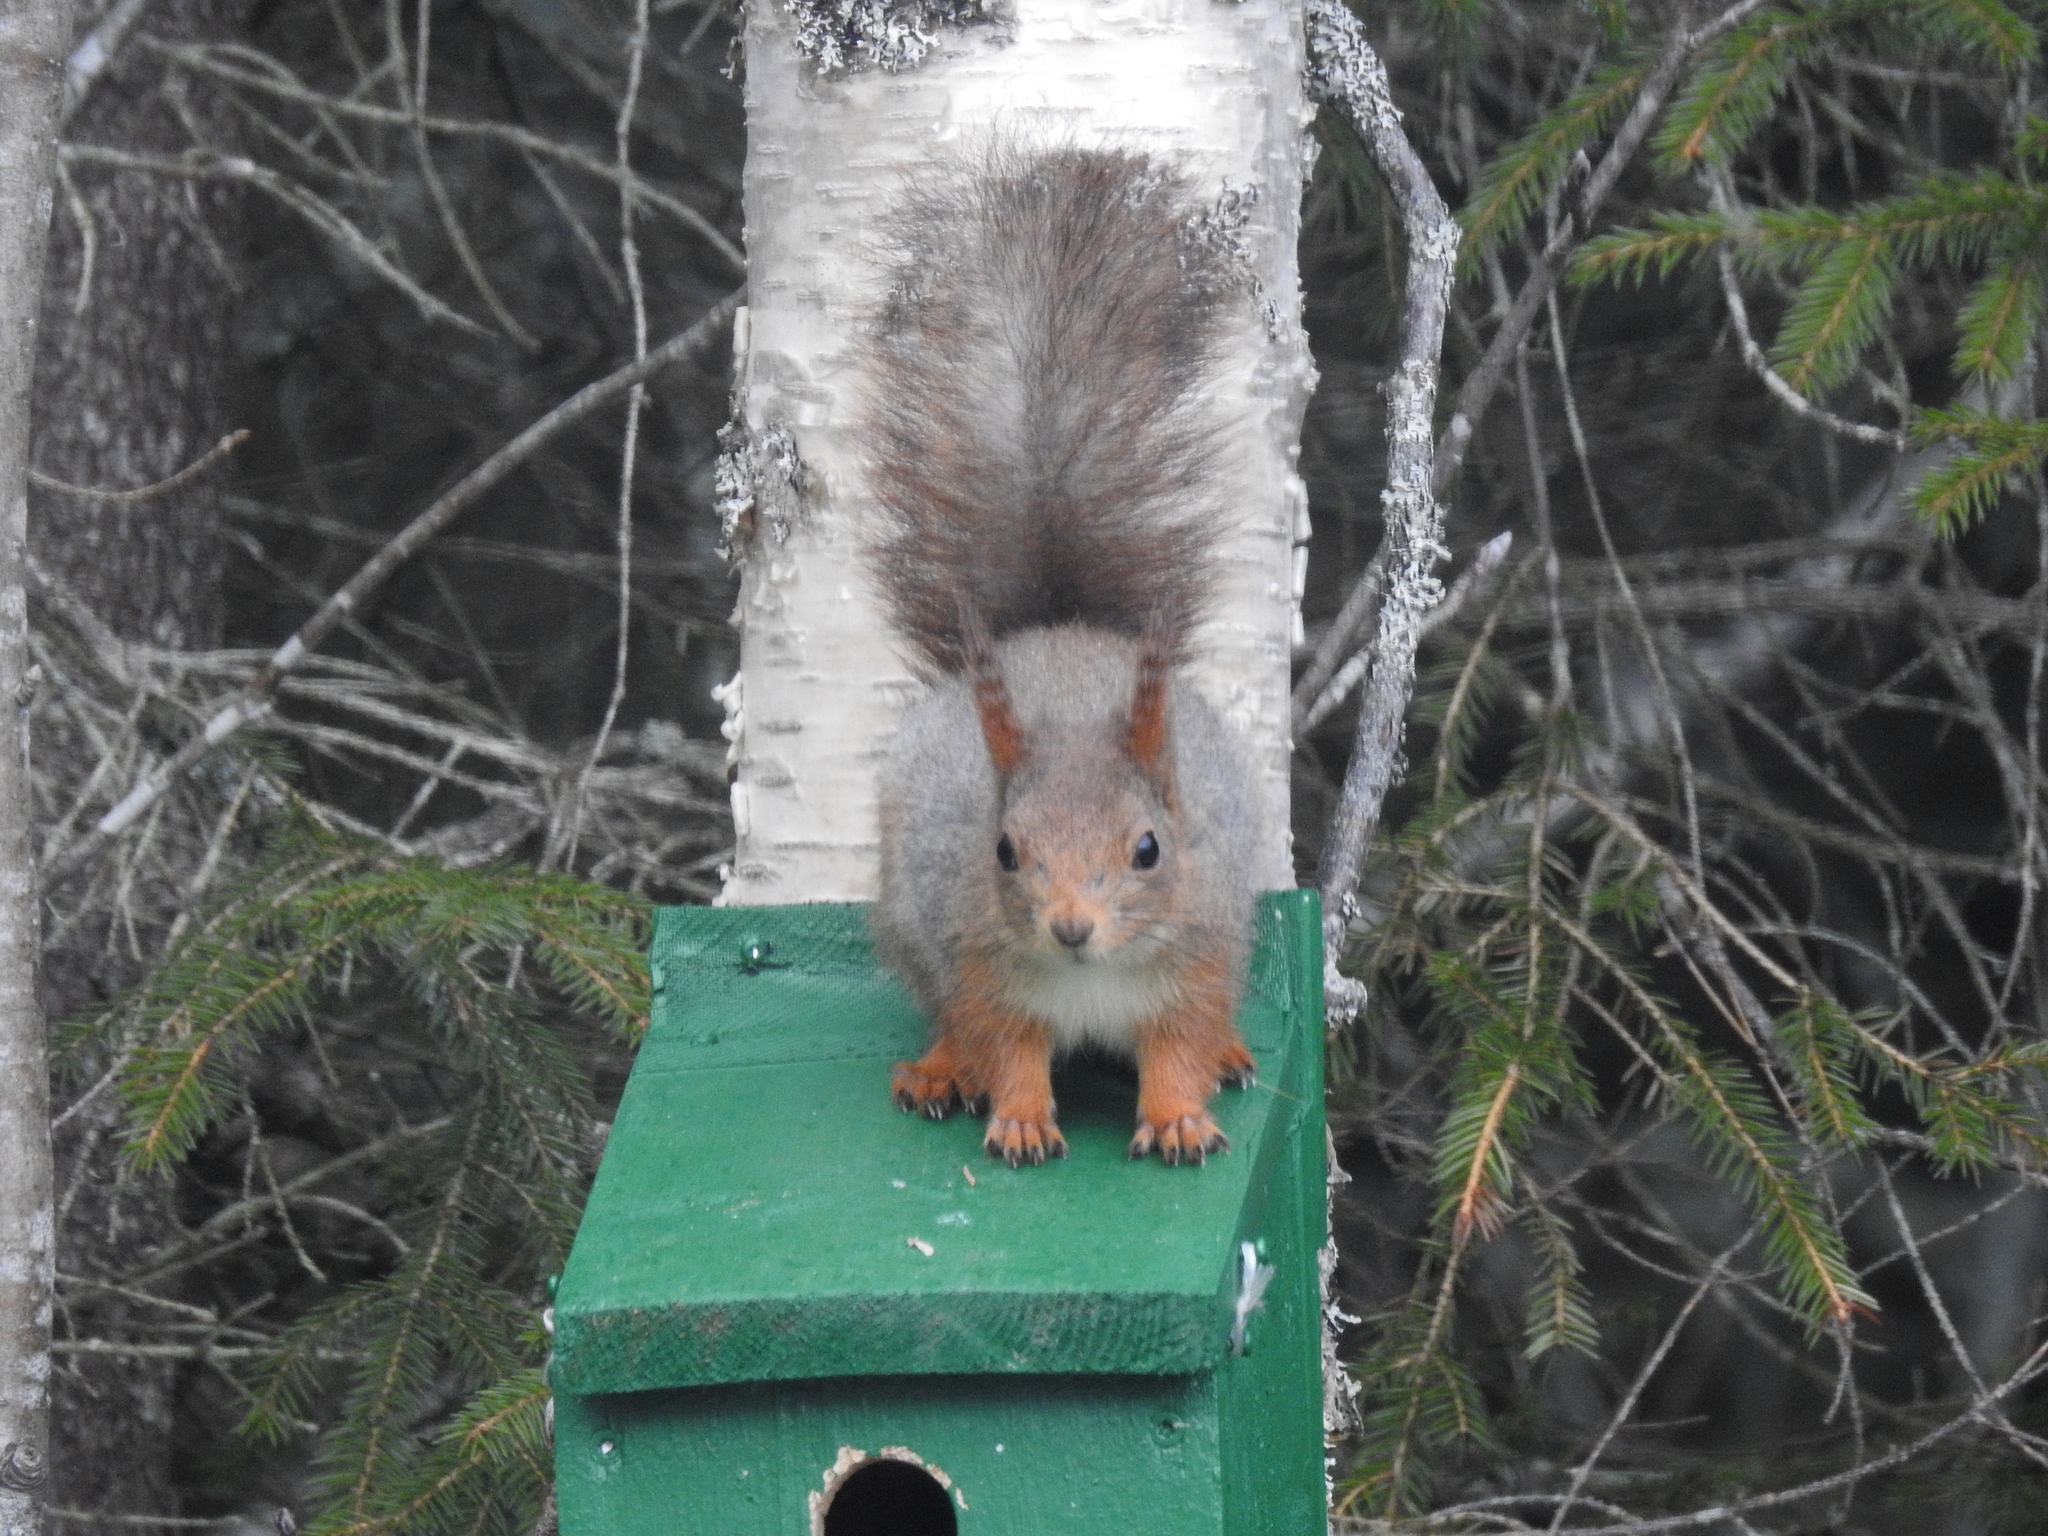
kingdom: Animalia
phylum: Chordata
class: Mammalia
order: Rodentia
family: Sciuridae
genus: Sciurus
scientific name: Sciurus vulgaris
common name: Eurasian red squirrel
